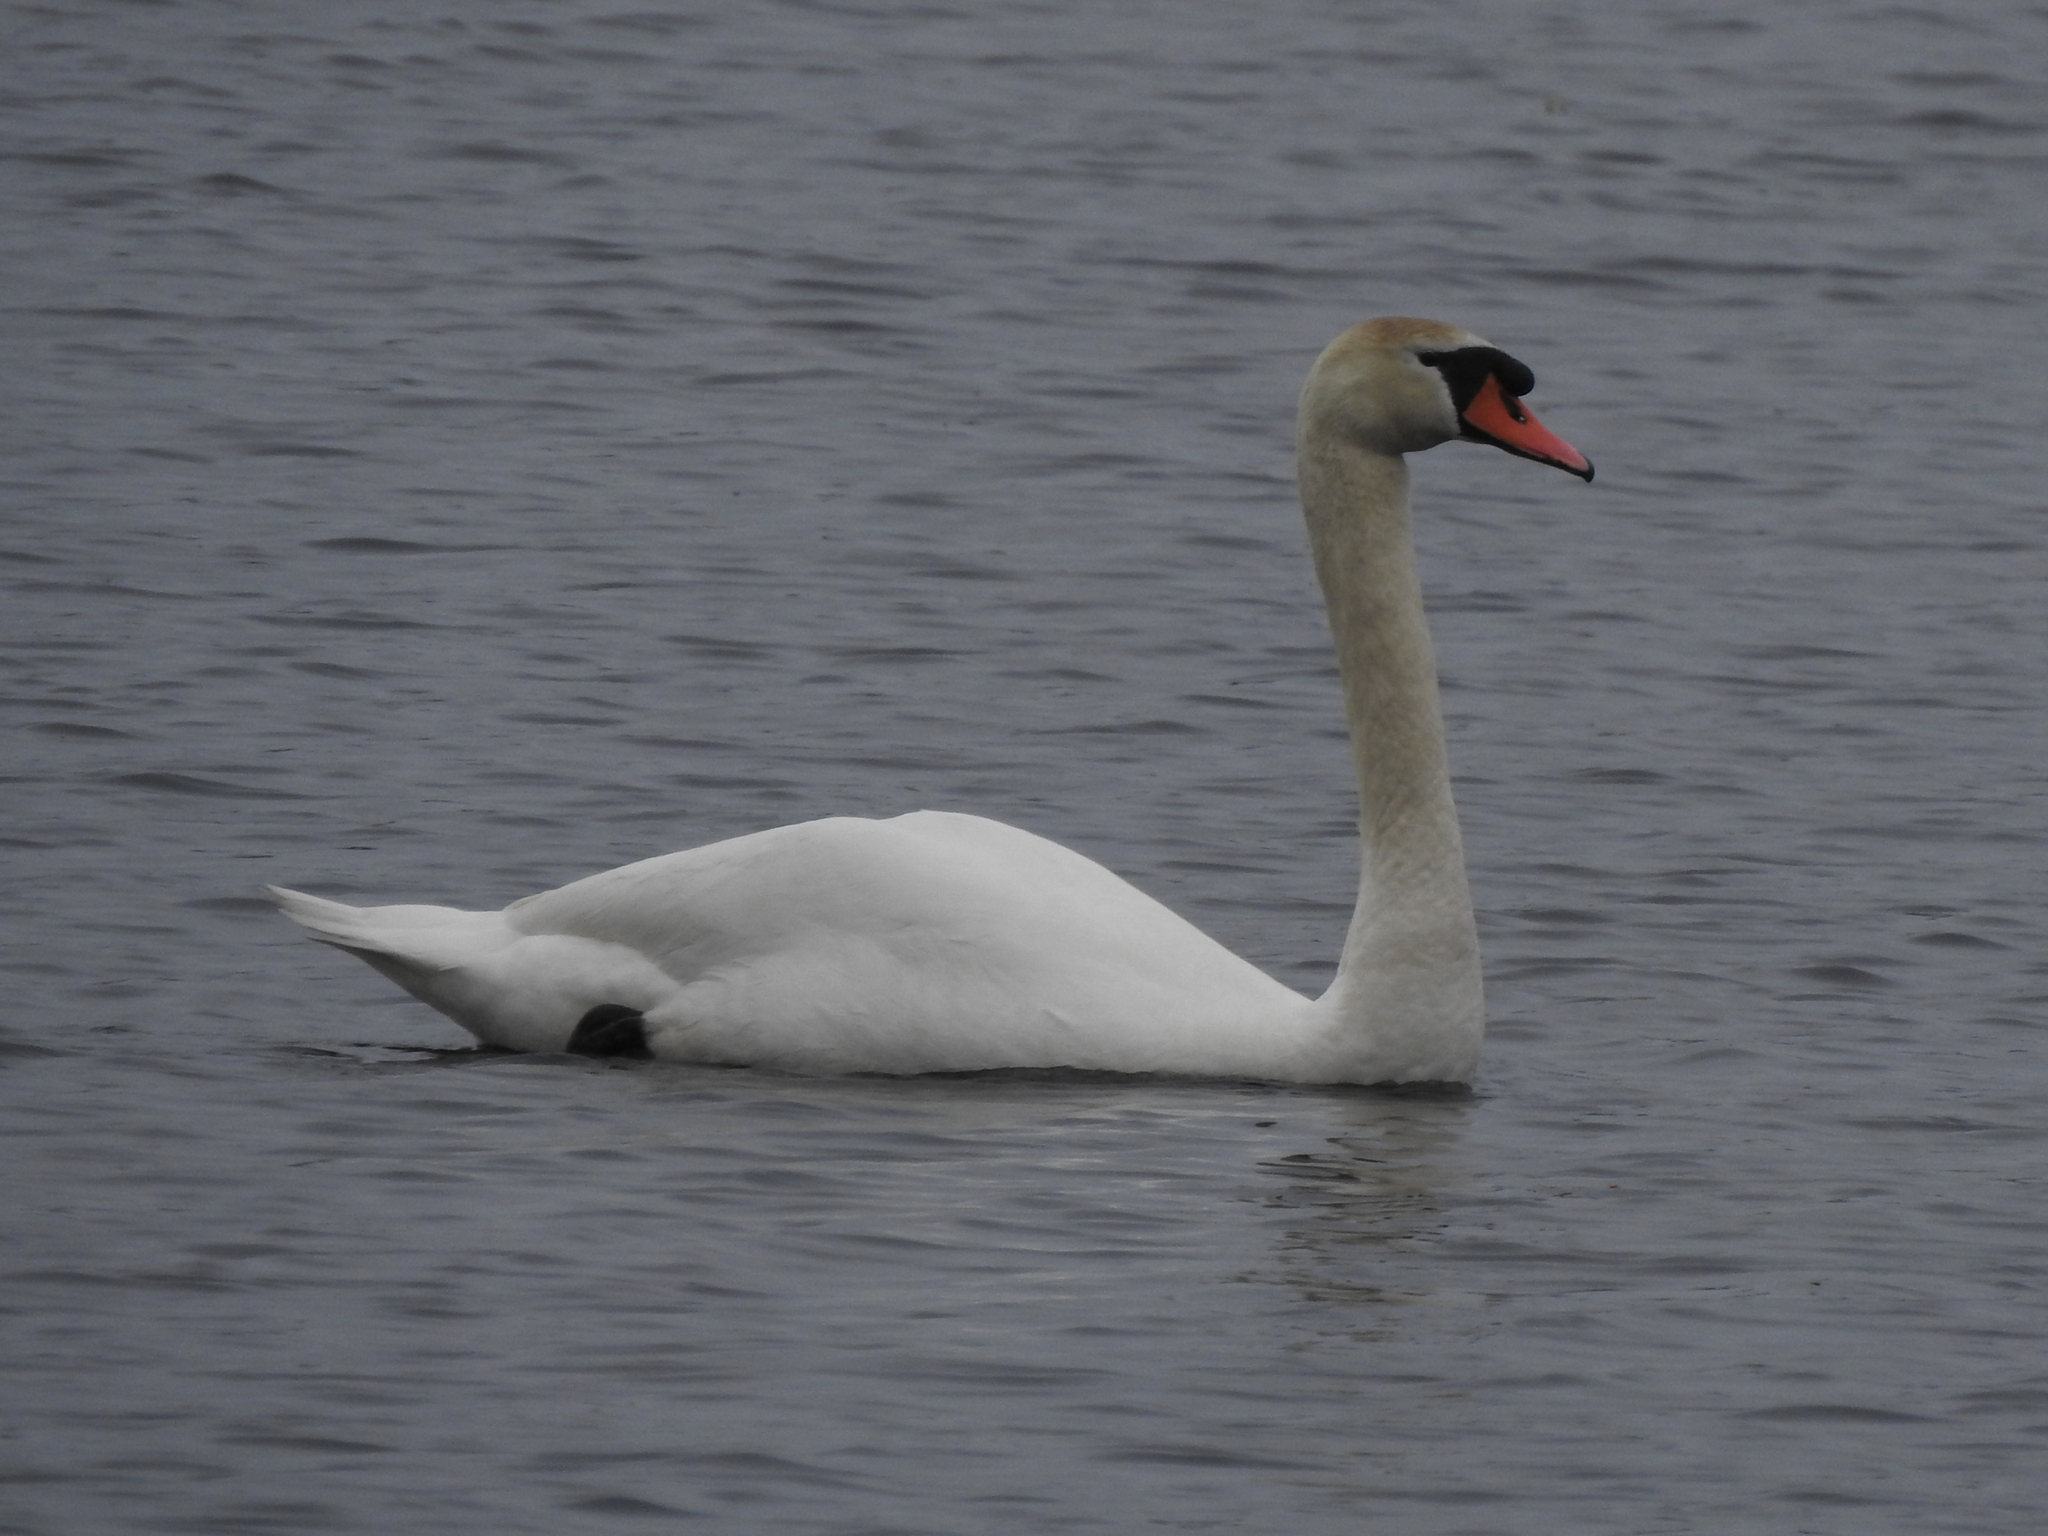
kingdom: Animalia
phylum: Chordata
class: Aves
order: Anseriformes
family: Anatidae
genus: Cygnus
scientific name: Cygnus olor
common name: Mute swan
